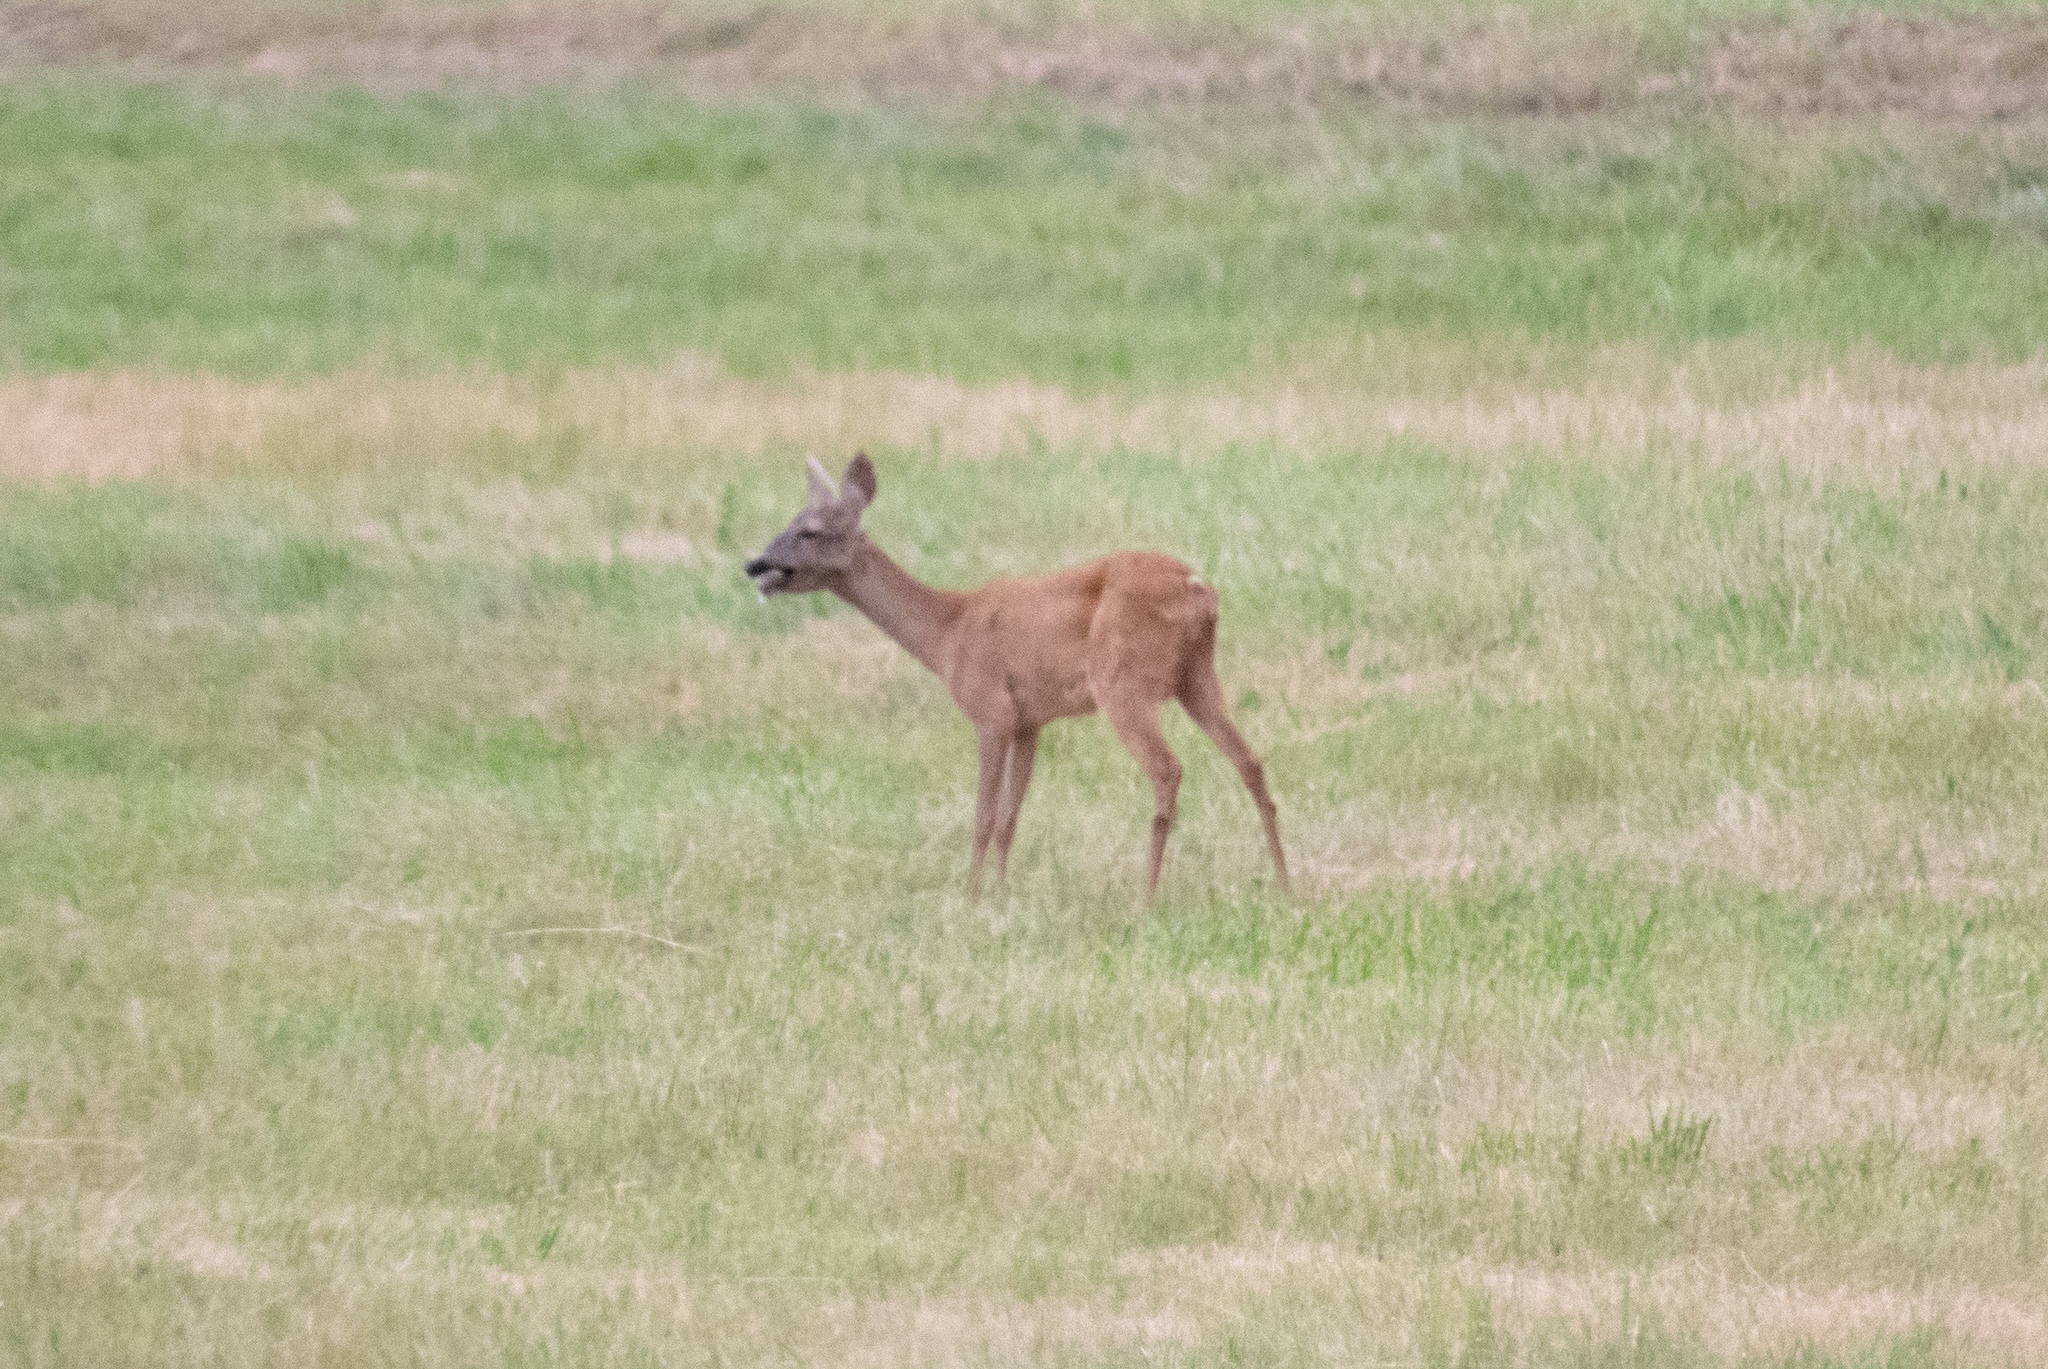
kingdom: Animalia
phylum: Chordata
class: Mammalia
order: Artiodactyla
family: Cervidae
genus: Capreolus
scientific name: Capreolus capreolus
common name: Western roe deer
